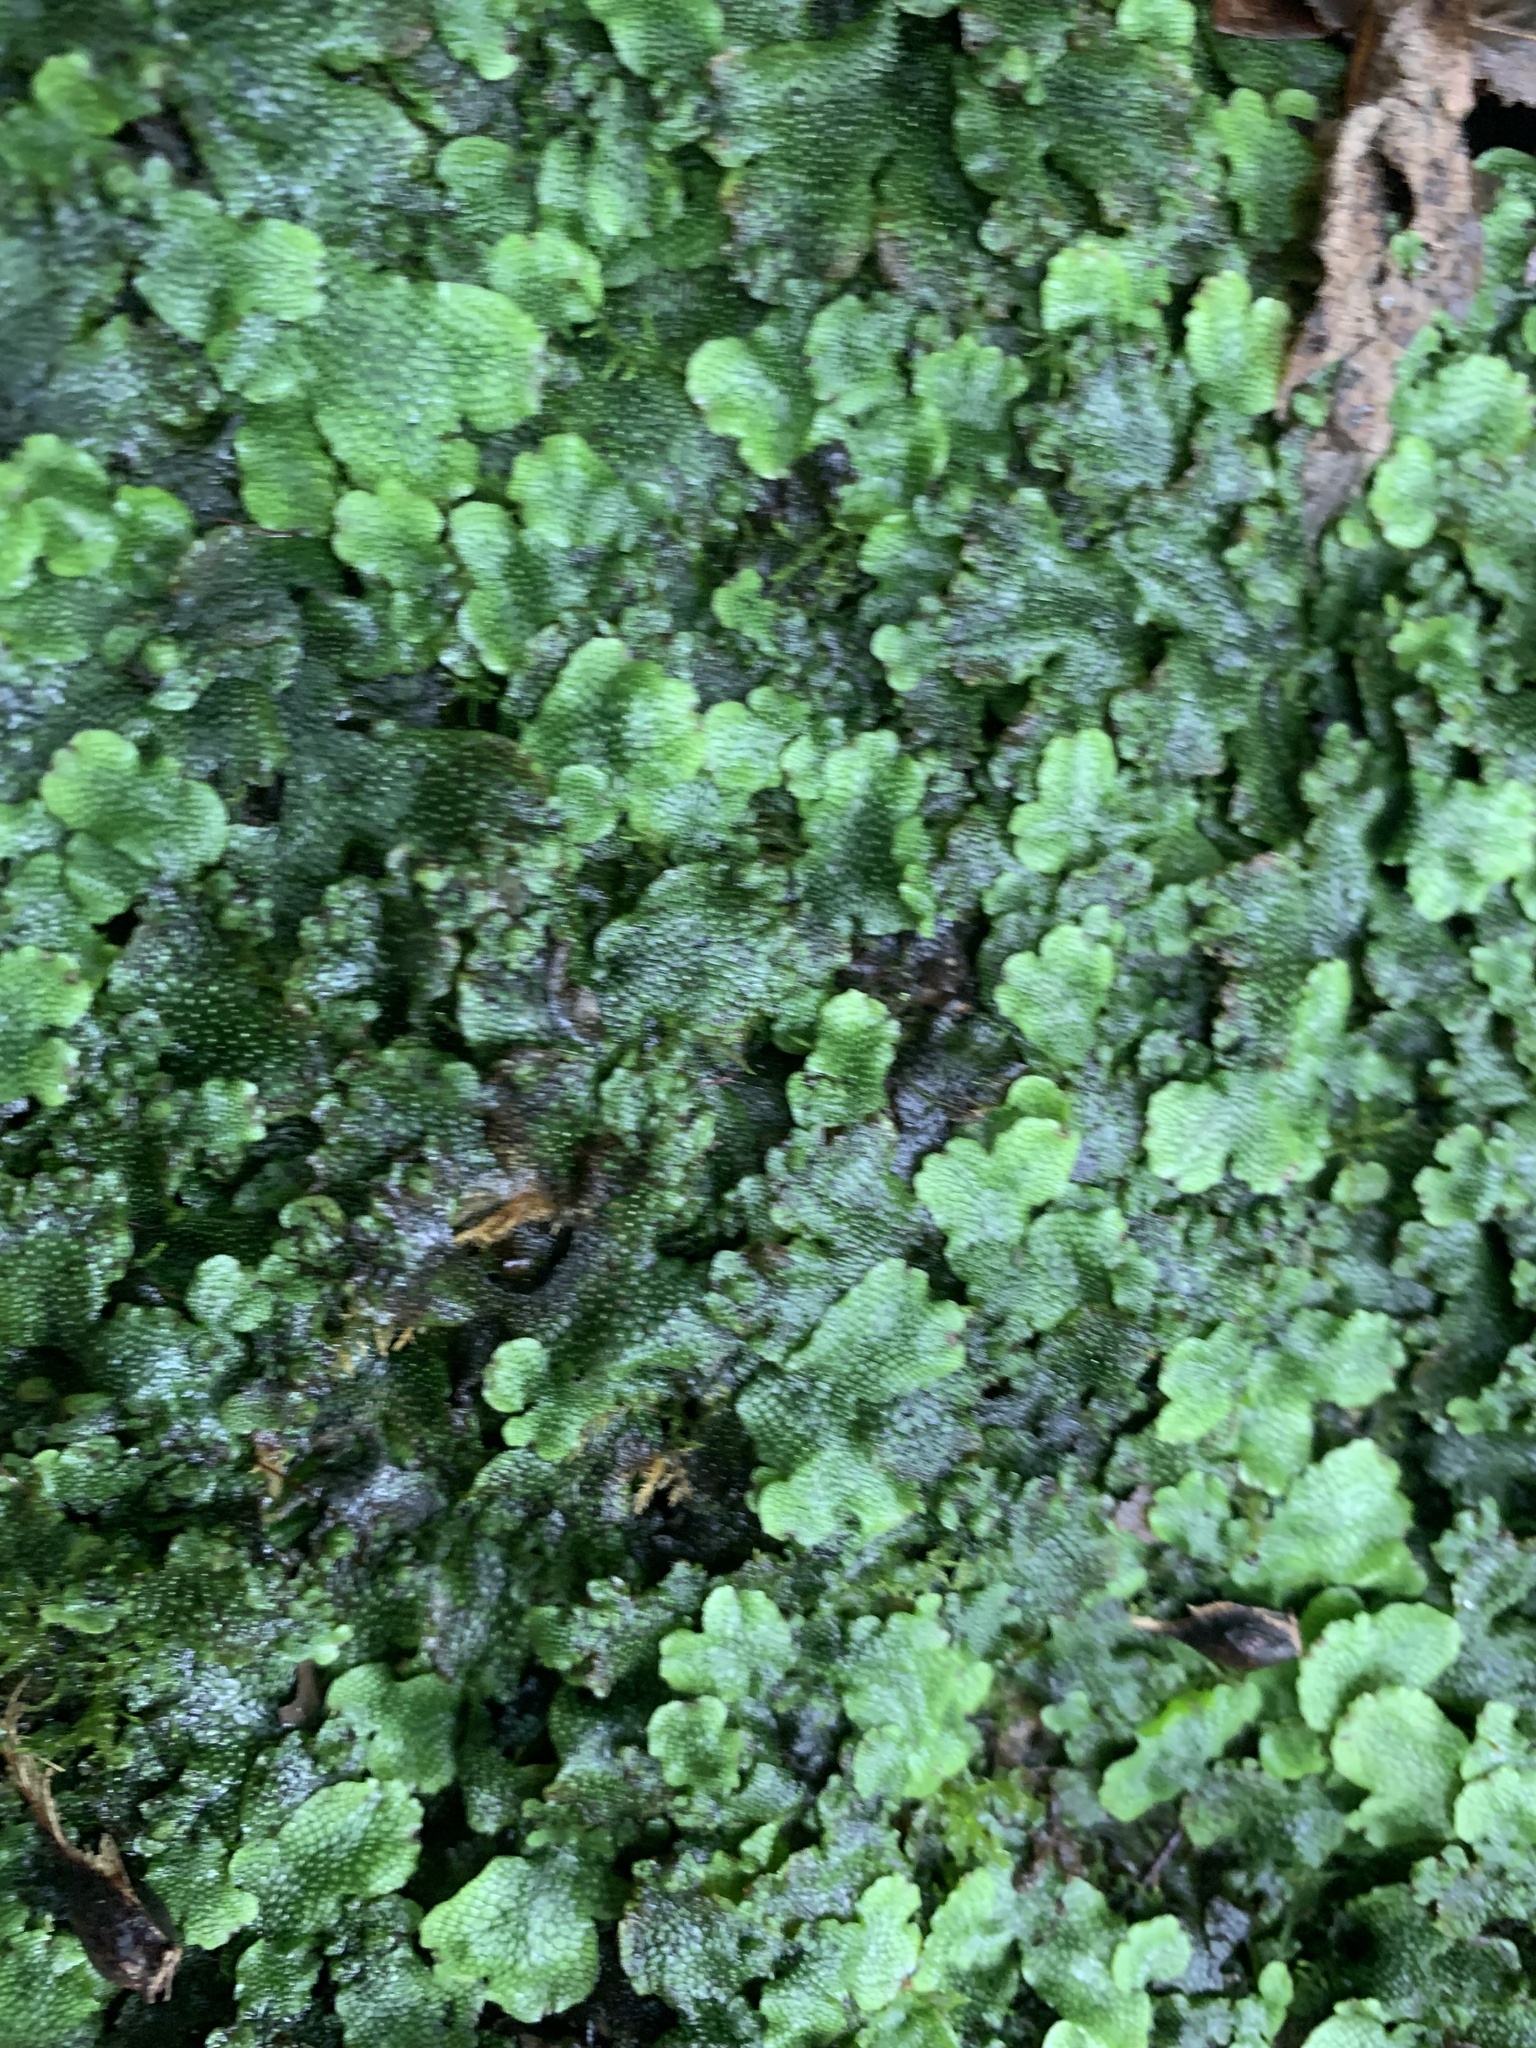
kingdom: Plantae
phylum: Marchantiophyta
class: Marchantiopsida
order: Marchantiales
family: Conocephalaceae
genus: Conocephalum
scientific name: Conocephalum salebrosum
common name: Cat-tongue liverwort
